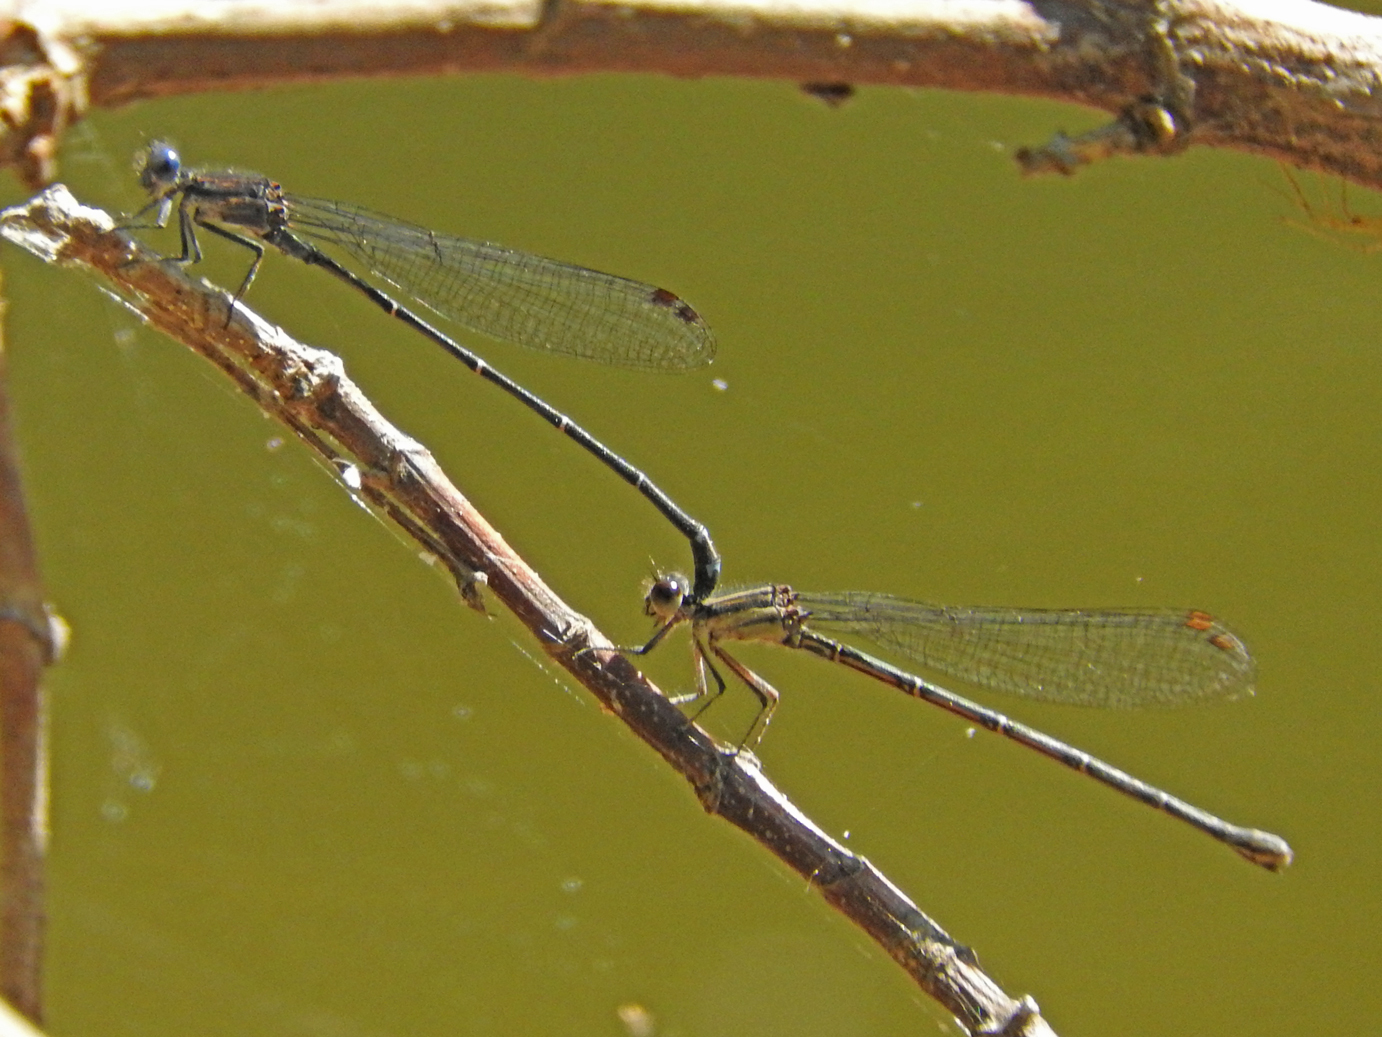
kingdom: Animalia
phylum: Arthropoda
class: Insecta
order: Odonata
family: Coenagrionidae
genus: Argia
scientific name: Argia translata
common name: Dusky dancer
